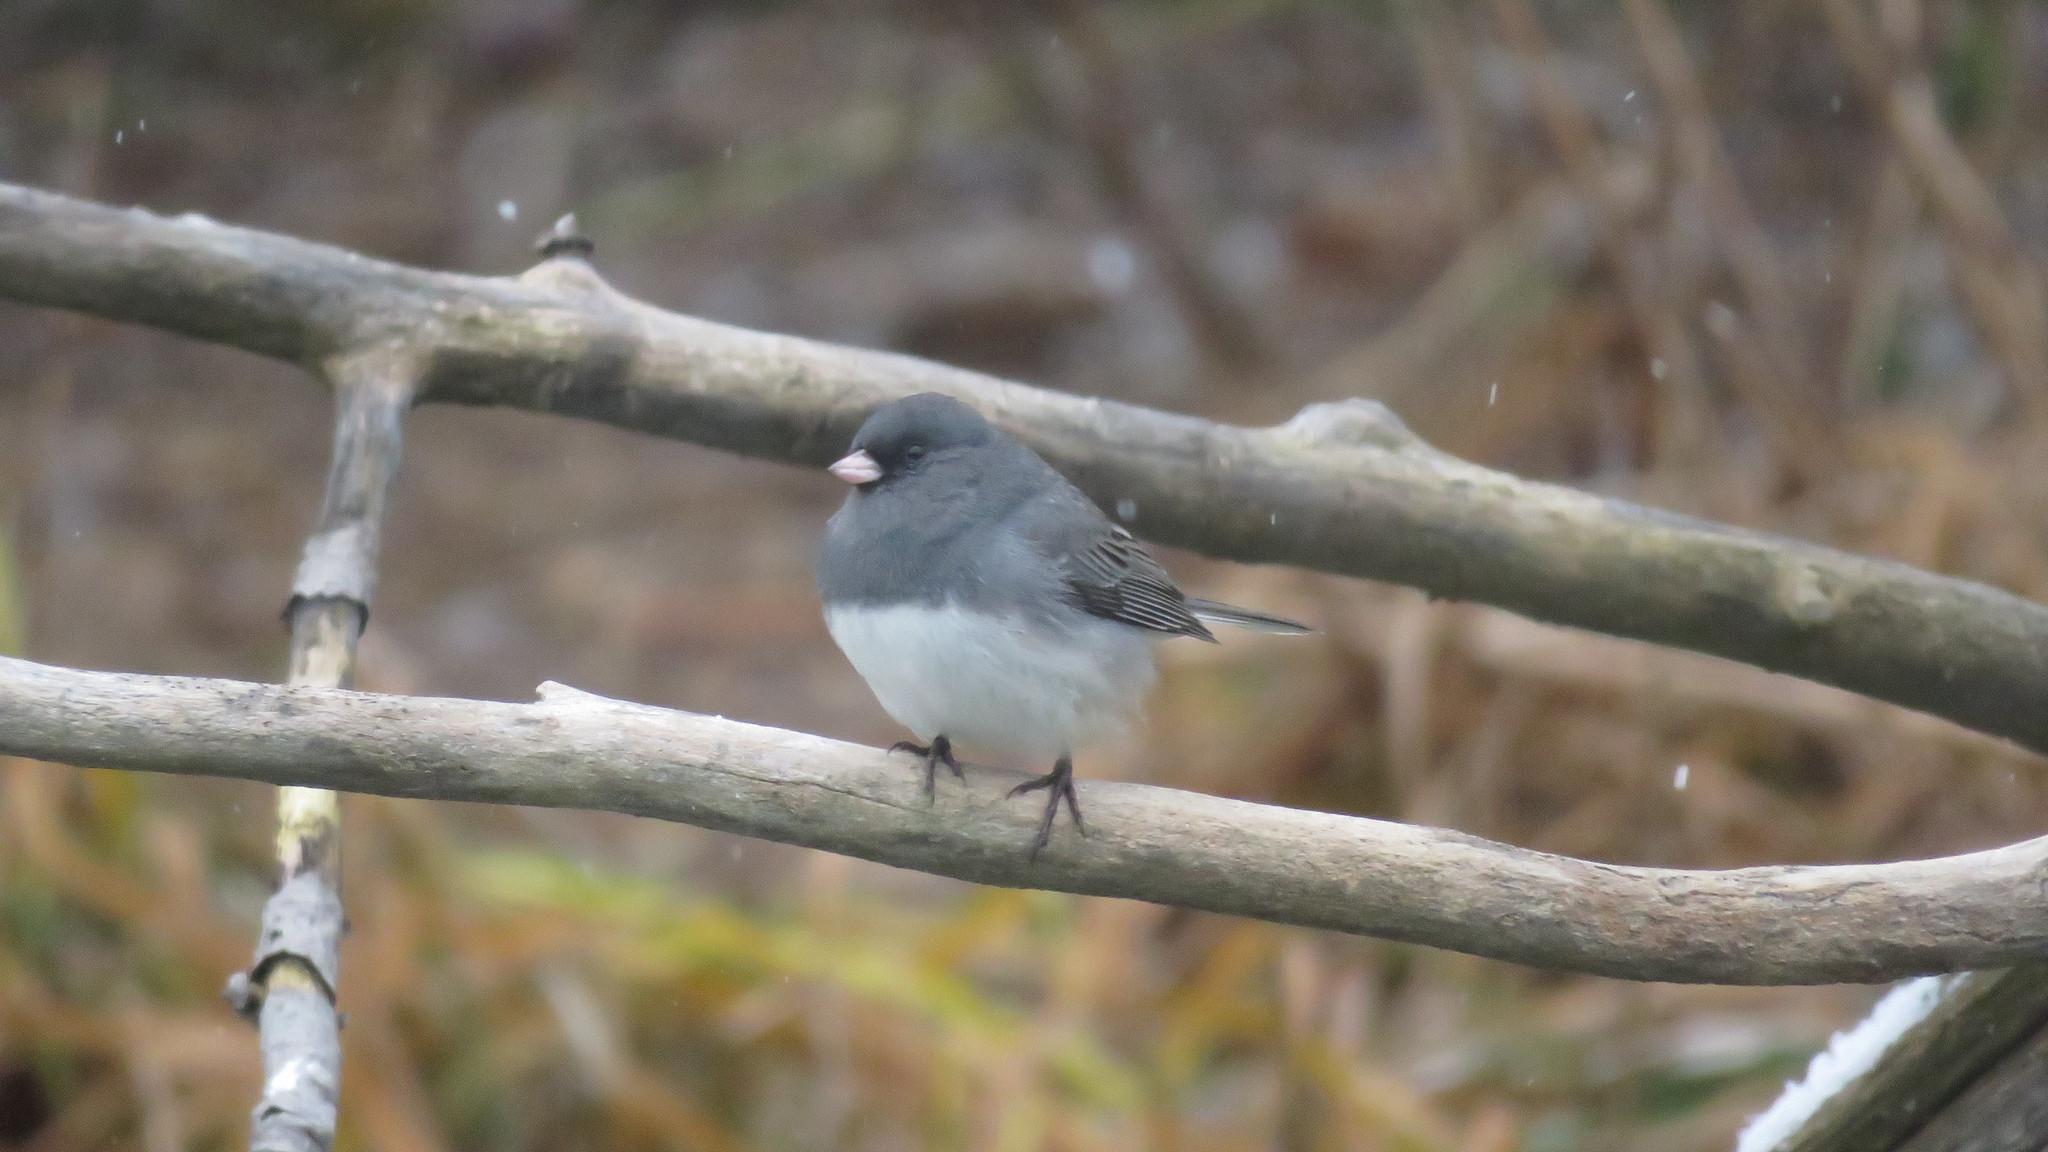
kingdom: Animalia
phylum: Chordata
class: Aves
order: Passeriformes
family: Passerellidae
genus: Junco
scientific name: Junco hyemalis
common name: Dark-eyed junco
